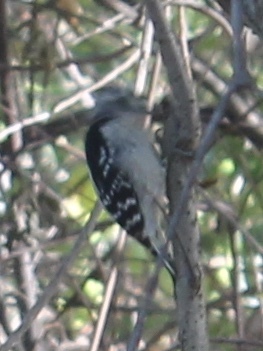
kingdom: Animalia
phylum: Chordata
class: Aves
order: Piciformes
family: Picidae
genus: Dryobates
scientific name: Dryobates pubescens
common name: Downy woodpecker
